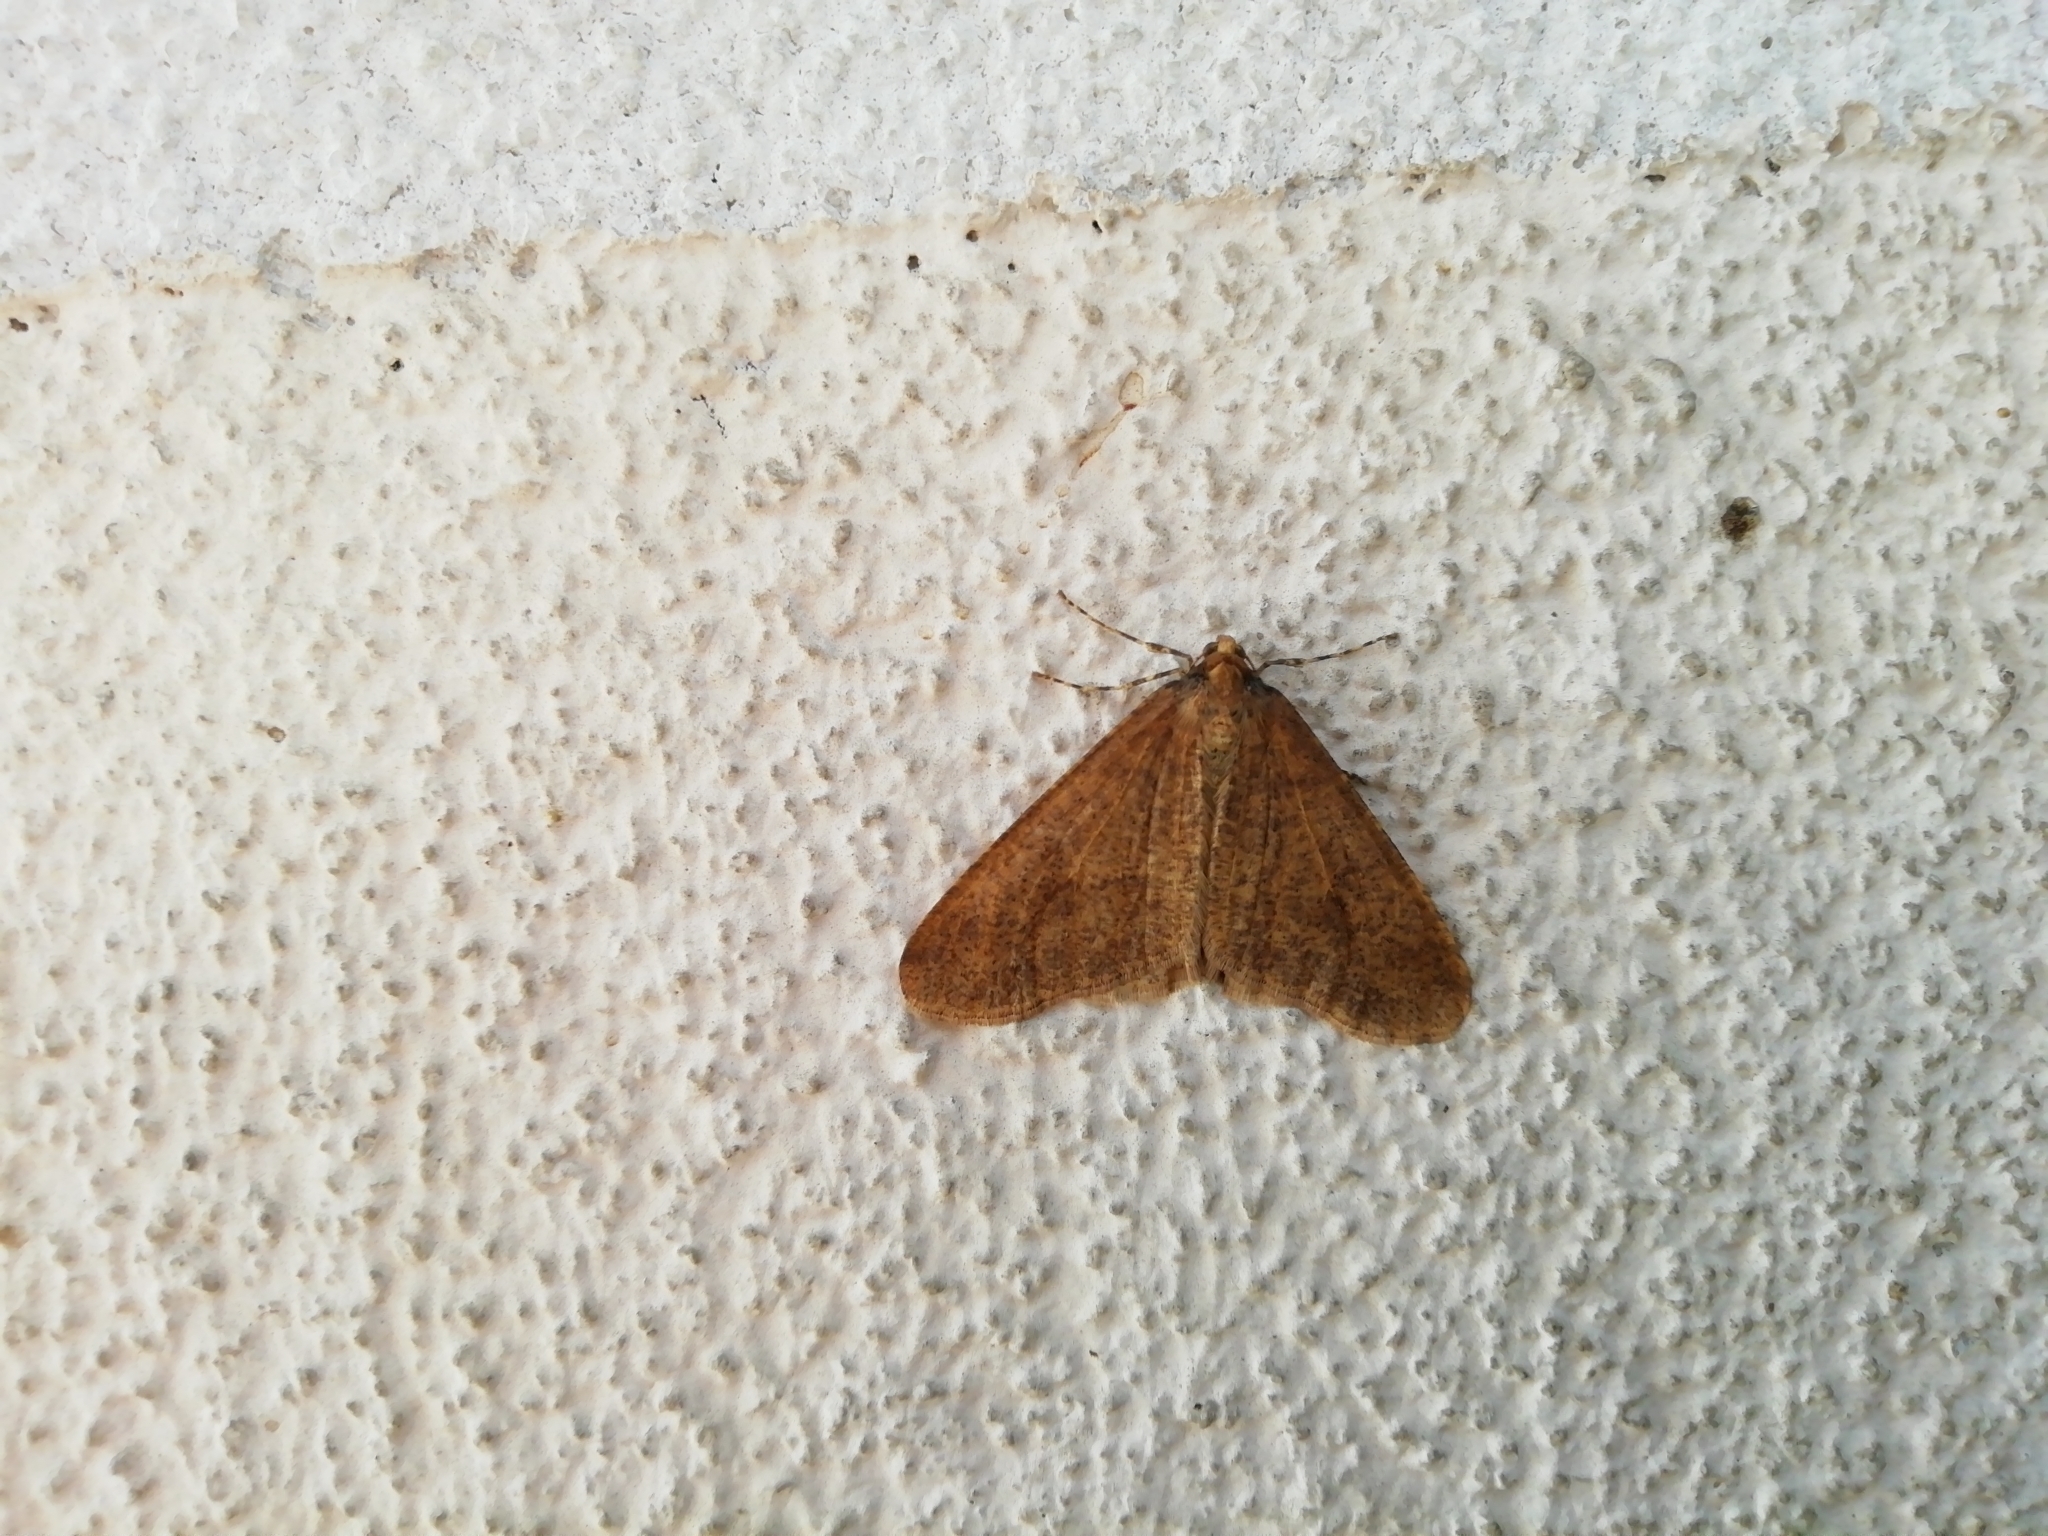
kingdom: Animalia
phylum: Arthropoda
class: Insecta
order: Lepidoptera
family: Geometridae
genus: Erannis
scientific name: Erannis defoliaria
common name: Mottled umber
